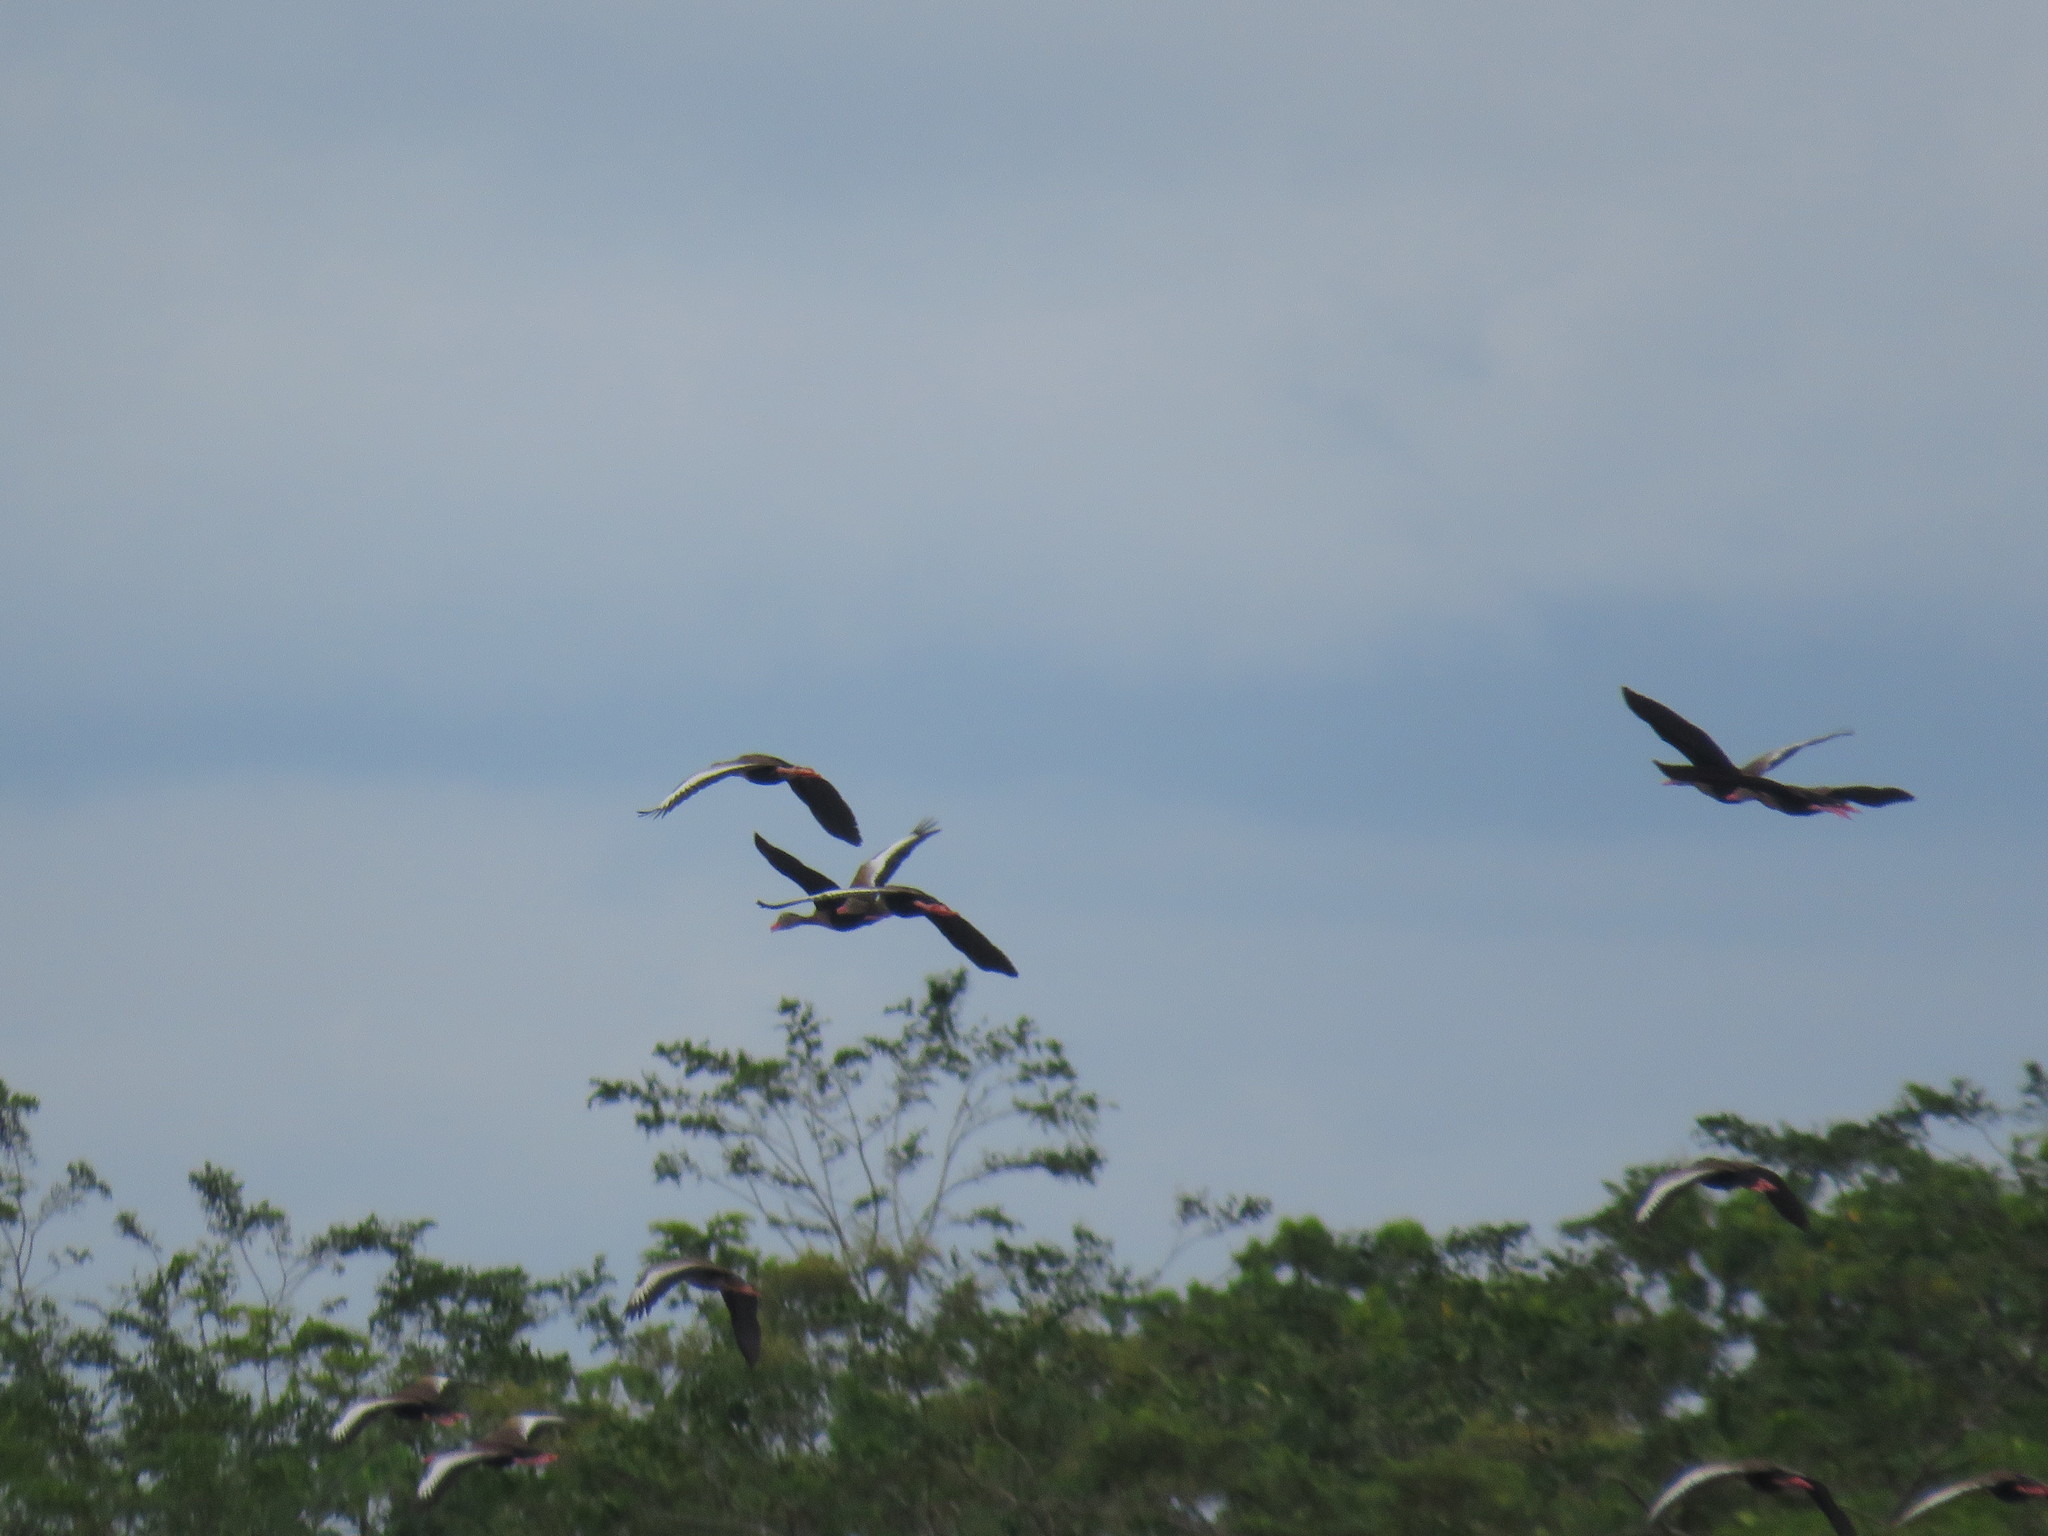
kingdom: Animalia
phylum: Chordata
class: Aves
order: Anseriformes
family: Anatidae
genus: Dendrocygna
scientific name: Dendrocygna autumnalis
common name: Black-bellied whistling duck
